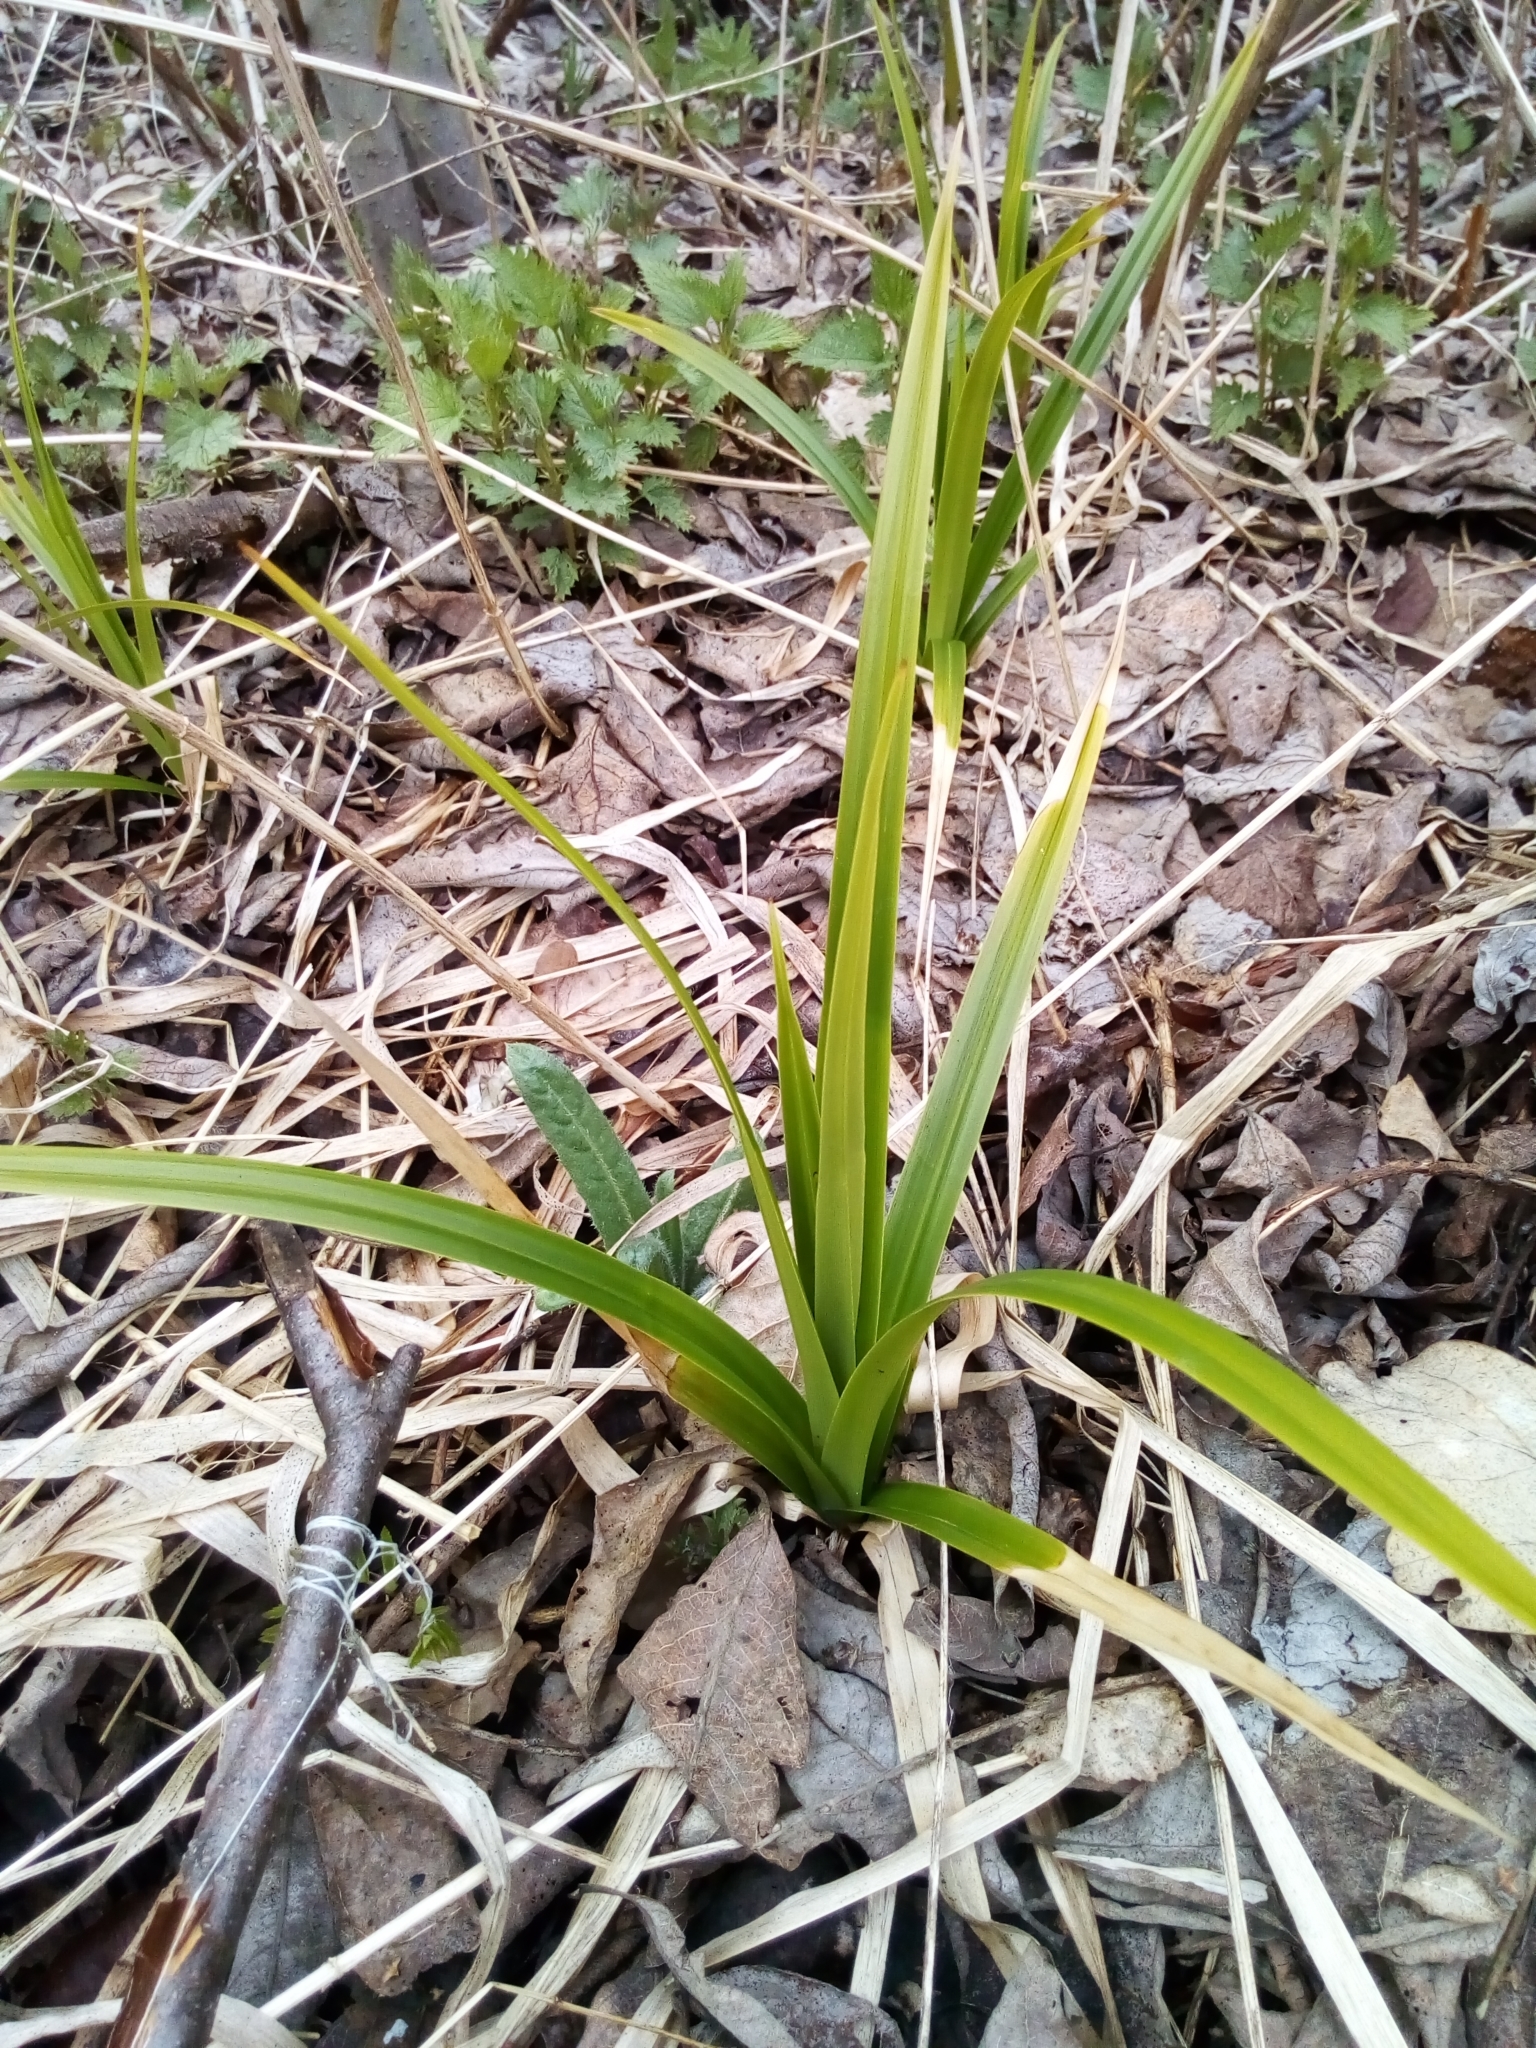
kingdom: Plantae
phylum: Tracheophyta
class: Liliopsida
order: Poales
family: Cyperaceae
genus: Scirpus
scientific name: Scirpus sylvaticus
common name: Wood club-rush
